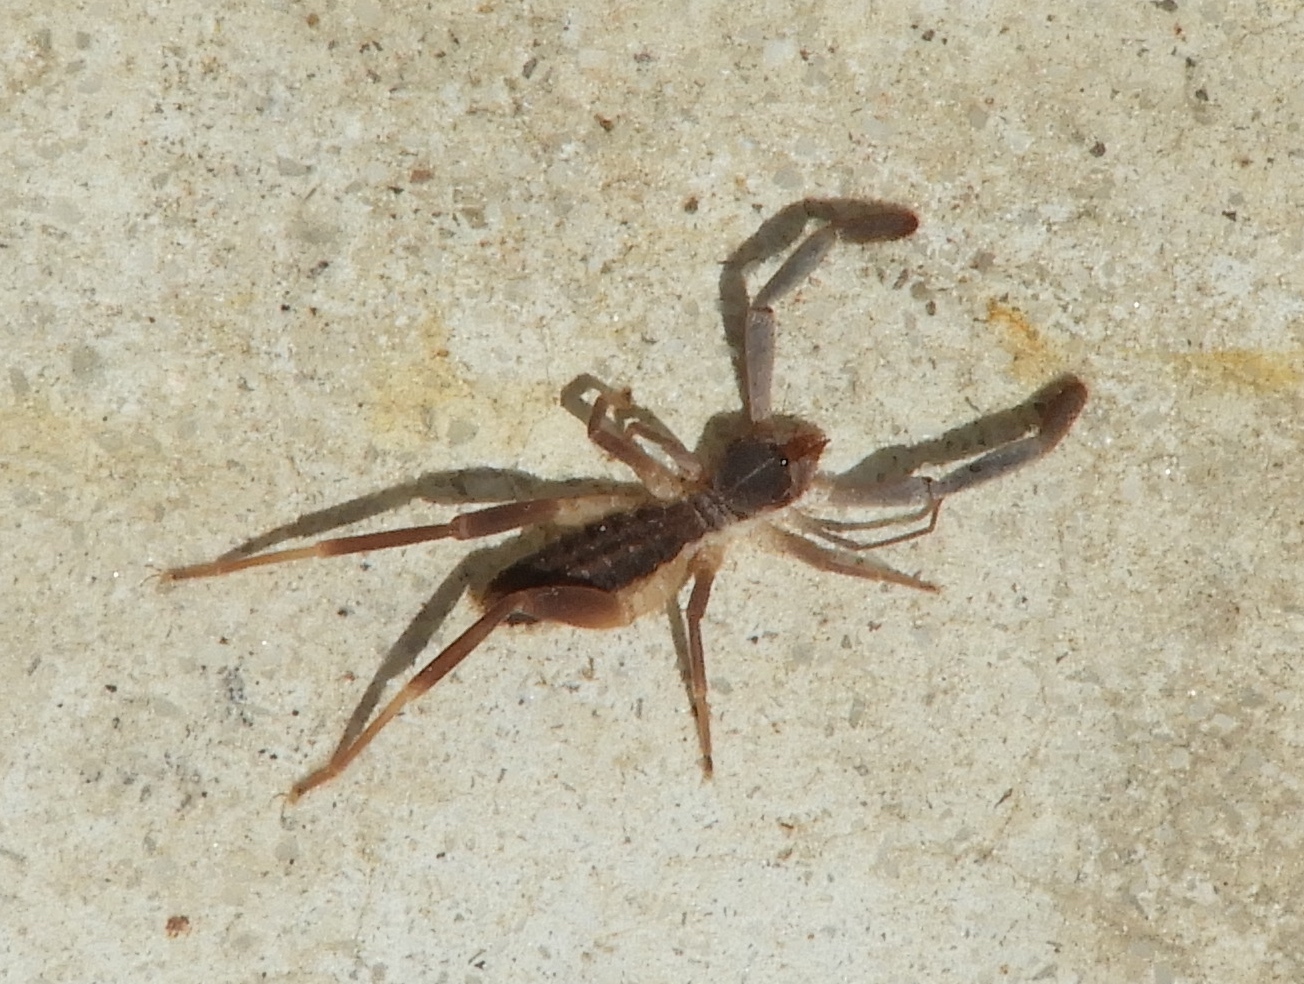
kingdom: Animalia
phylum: Arthropoda
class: Arachnida
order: Solifugae
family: Ammotrechidae
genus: Ammotrechula
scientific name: Ammotrechula boneti
